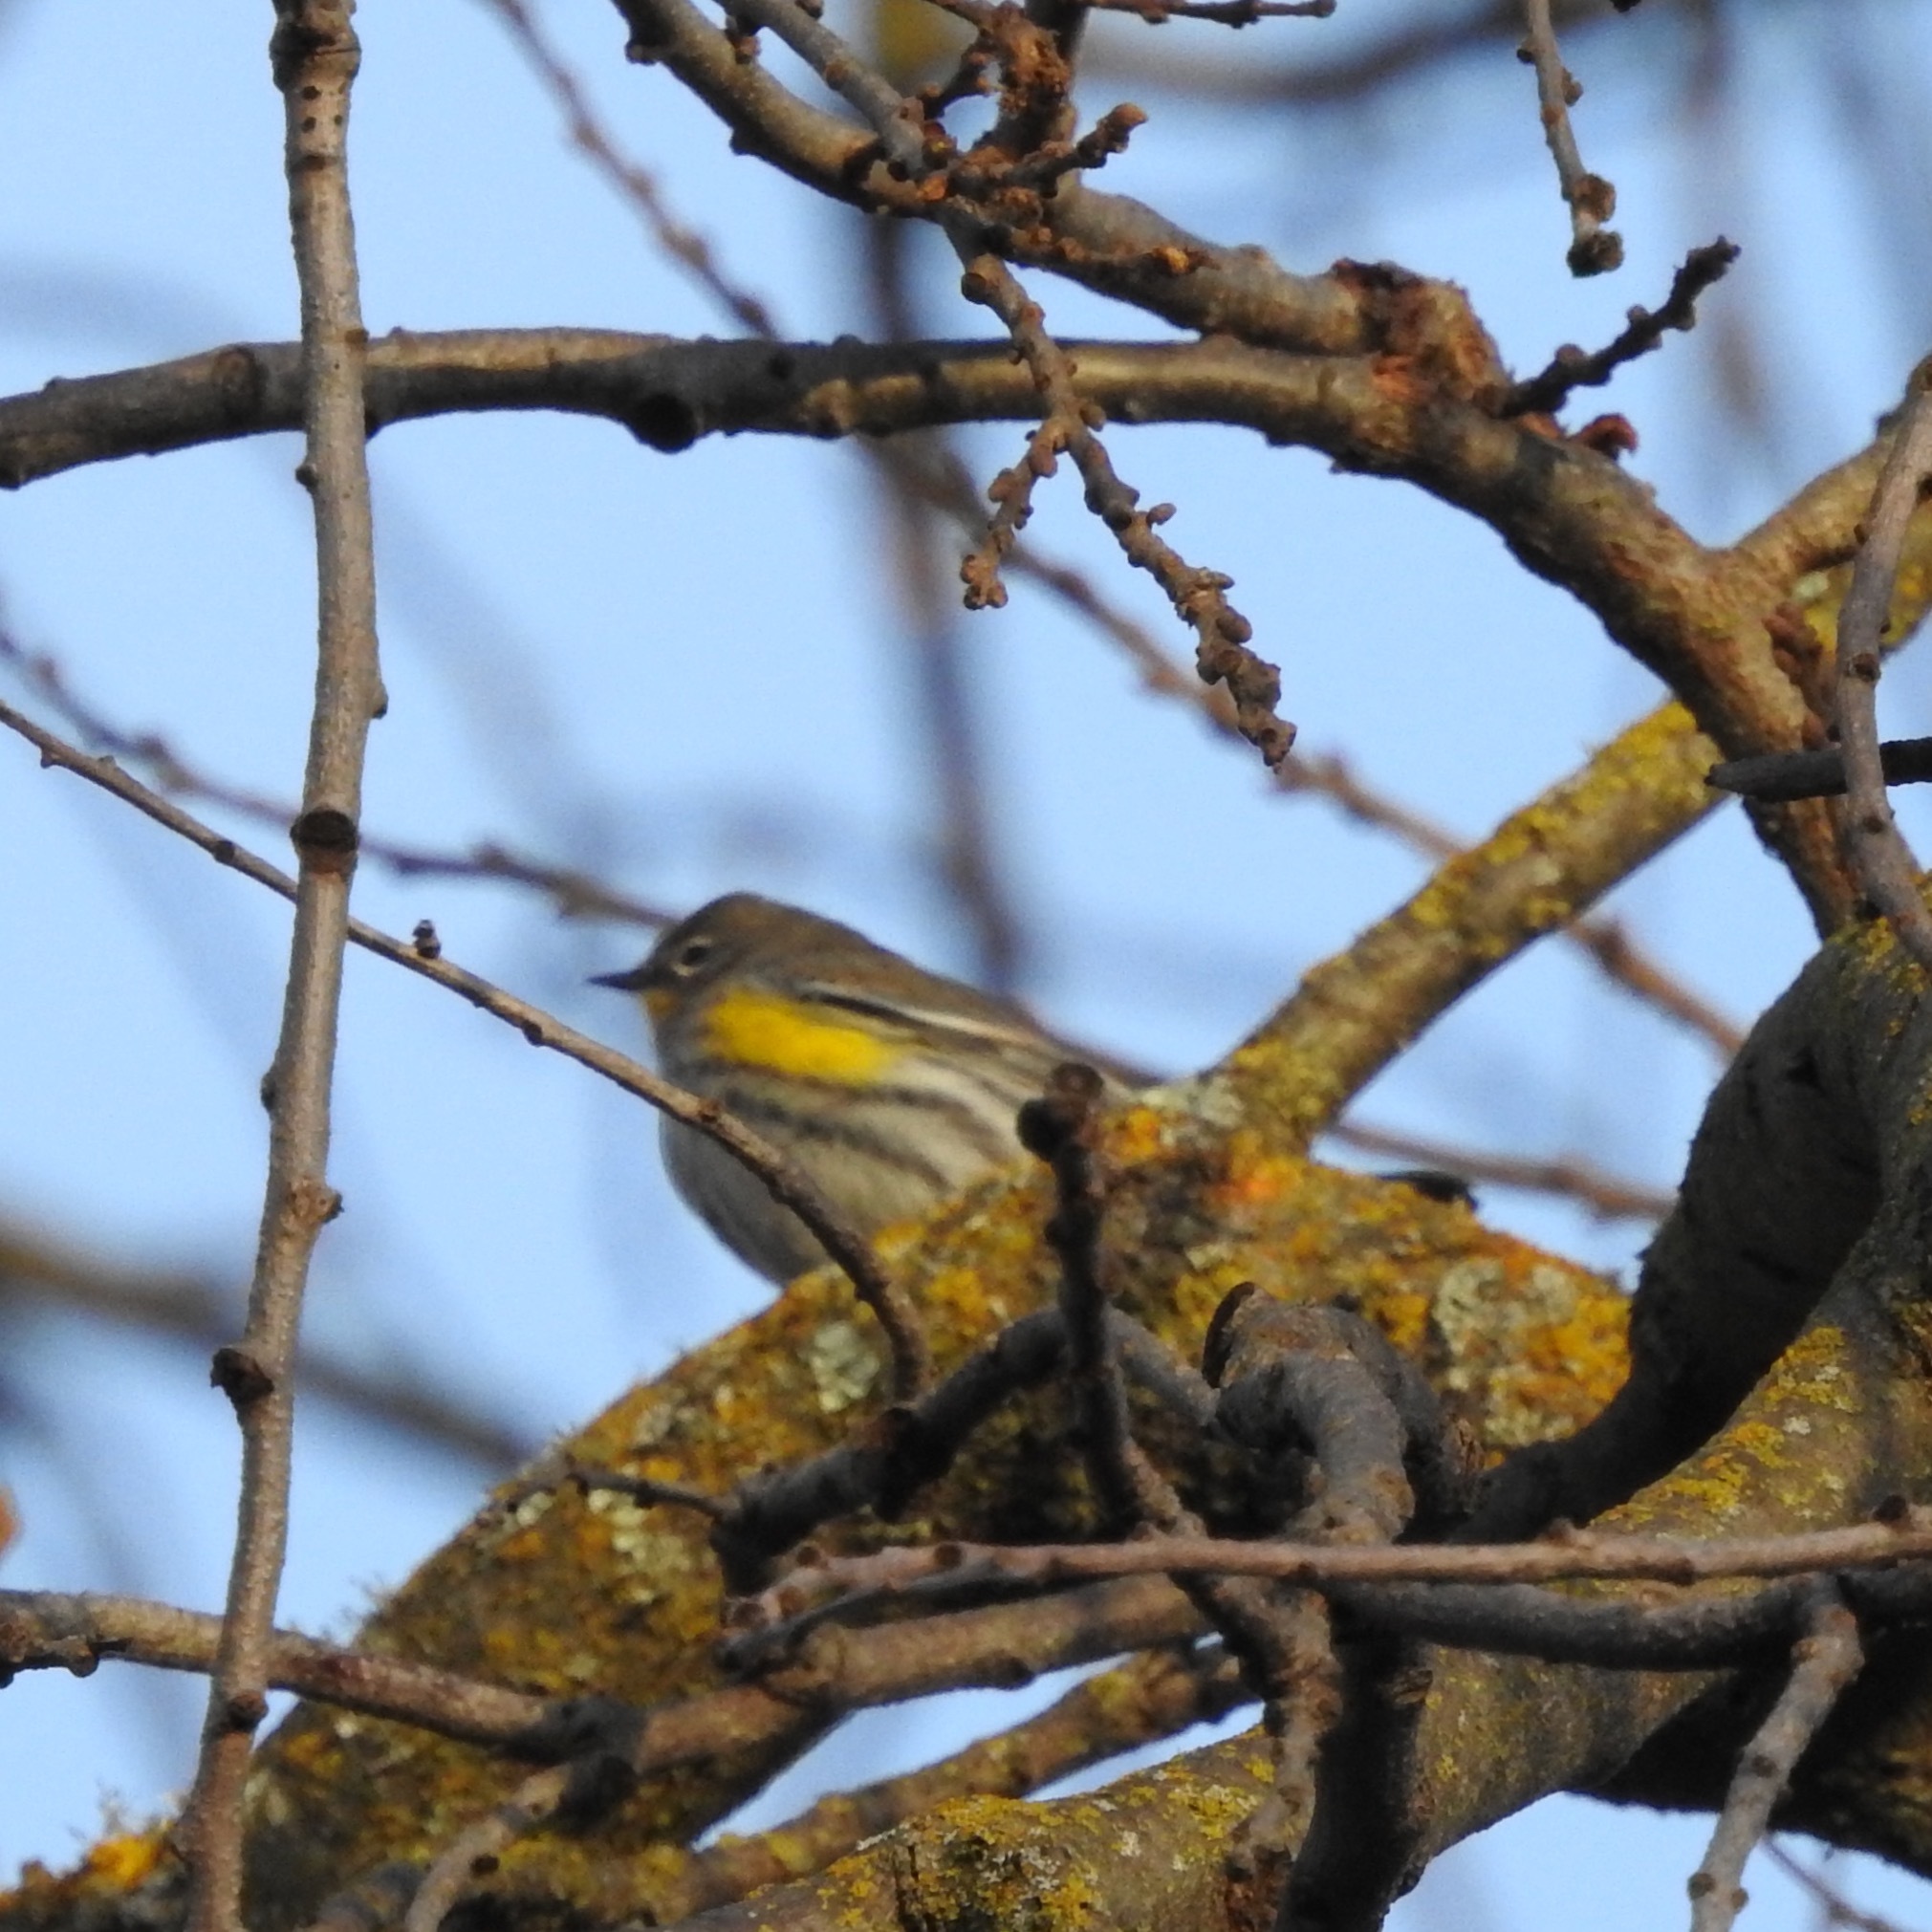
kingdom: Animalia
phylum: Chordata
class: Aves
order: Passeriformes
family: Parulidae
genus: Setophaga
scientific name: Setophaga coronata
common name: Myrtle warbler
